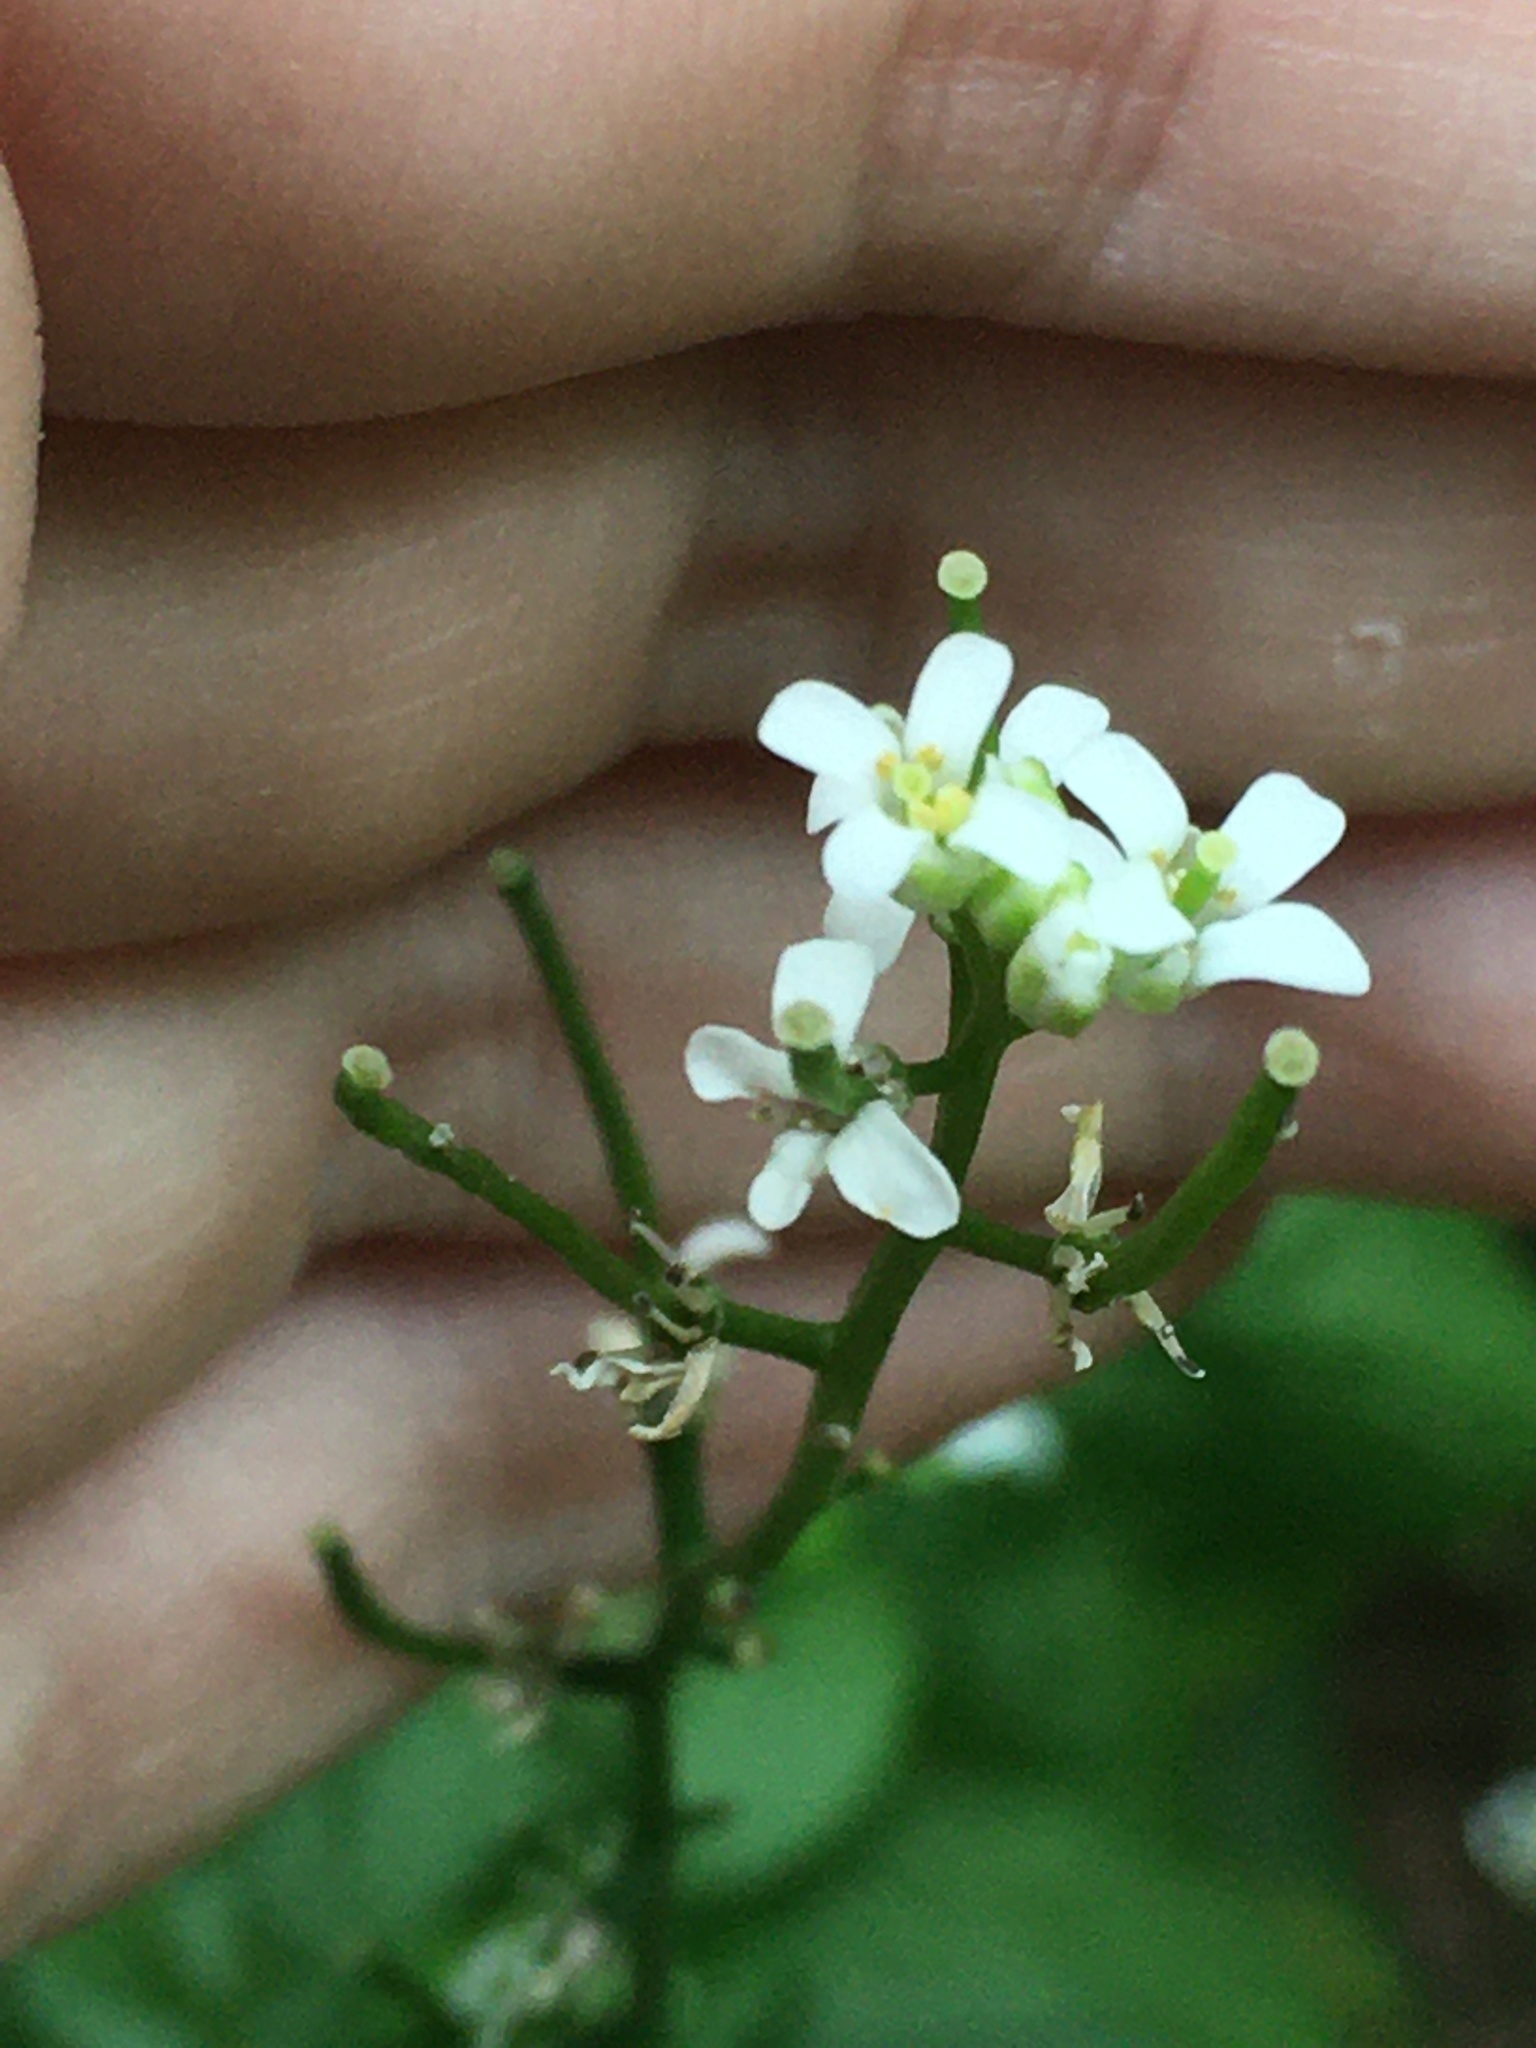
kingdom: Plantae
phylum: Tracheophyta
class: Magnoliopsida
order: Brassicales
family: Brassicaceae
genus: Alliaria
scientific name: Alliaria petiolata
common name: Garlic mustard
